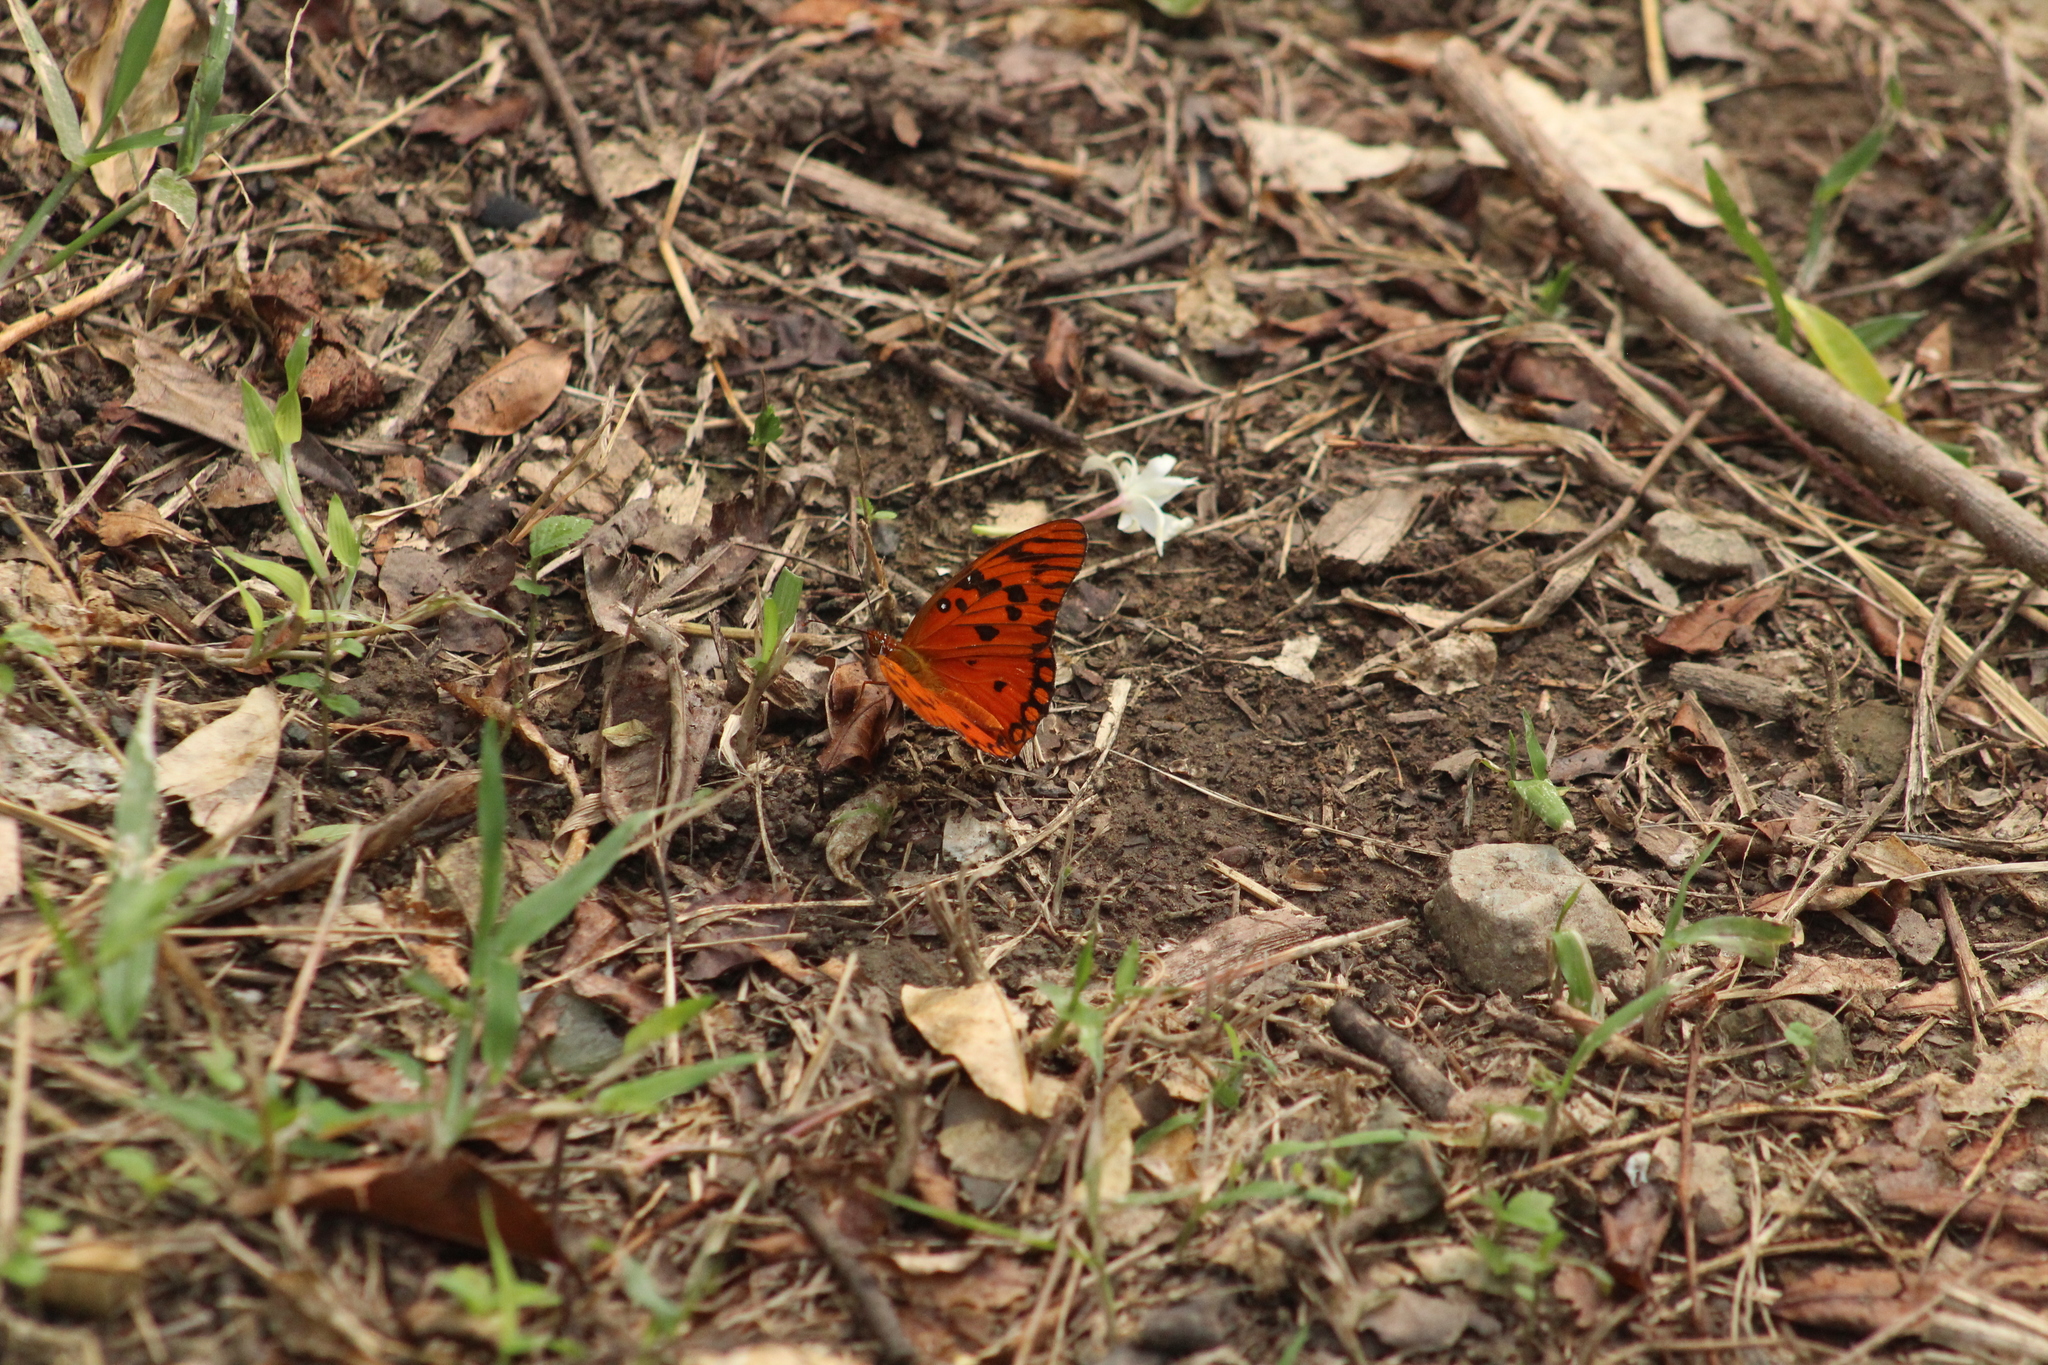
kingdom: Animalia
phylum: Arthropoda
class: Insecta
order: Lepidoptera
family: Nymphalidae
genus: Dione
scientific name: Dione vanillae
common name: Gulf fritillary
